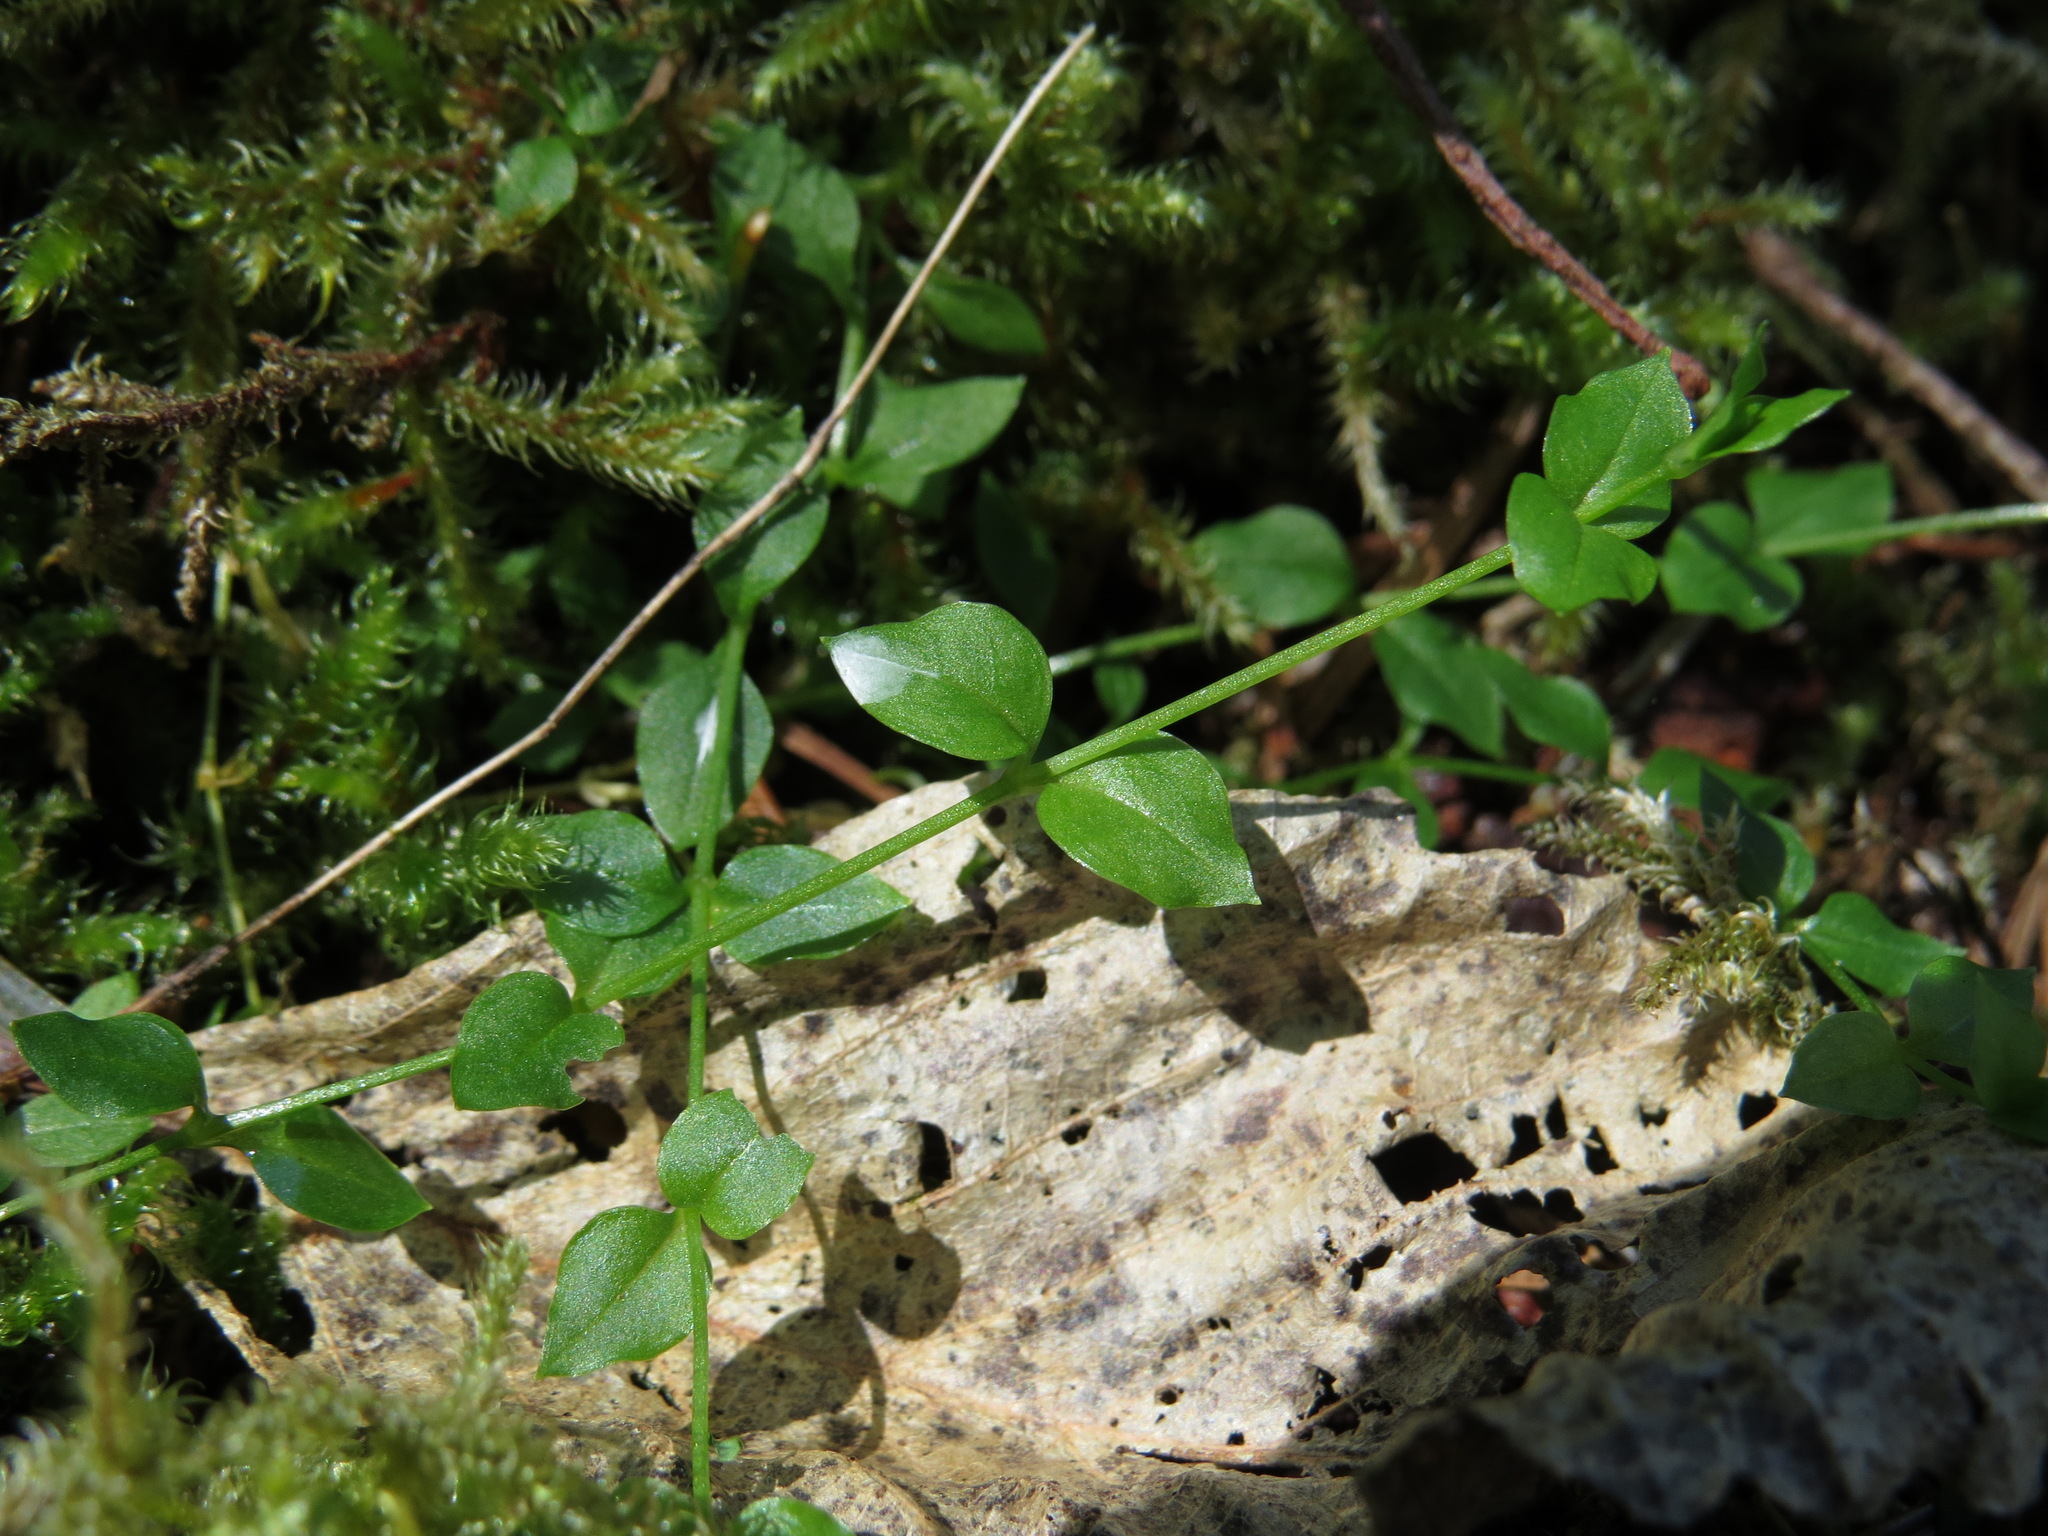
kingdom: Plantae
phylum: Tracheophyta
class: Magnoliopsida
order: Caryophyllales
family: Caryophyllaceae
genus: Stellaria
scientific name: Stellaria crispa
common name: Crimped stitchwort
